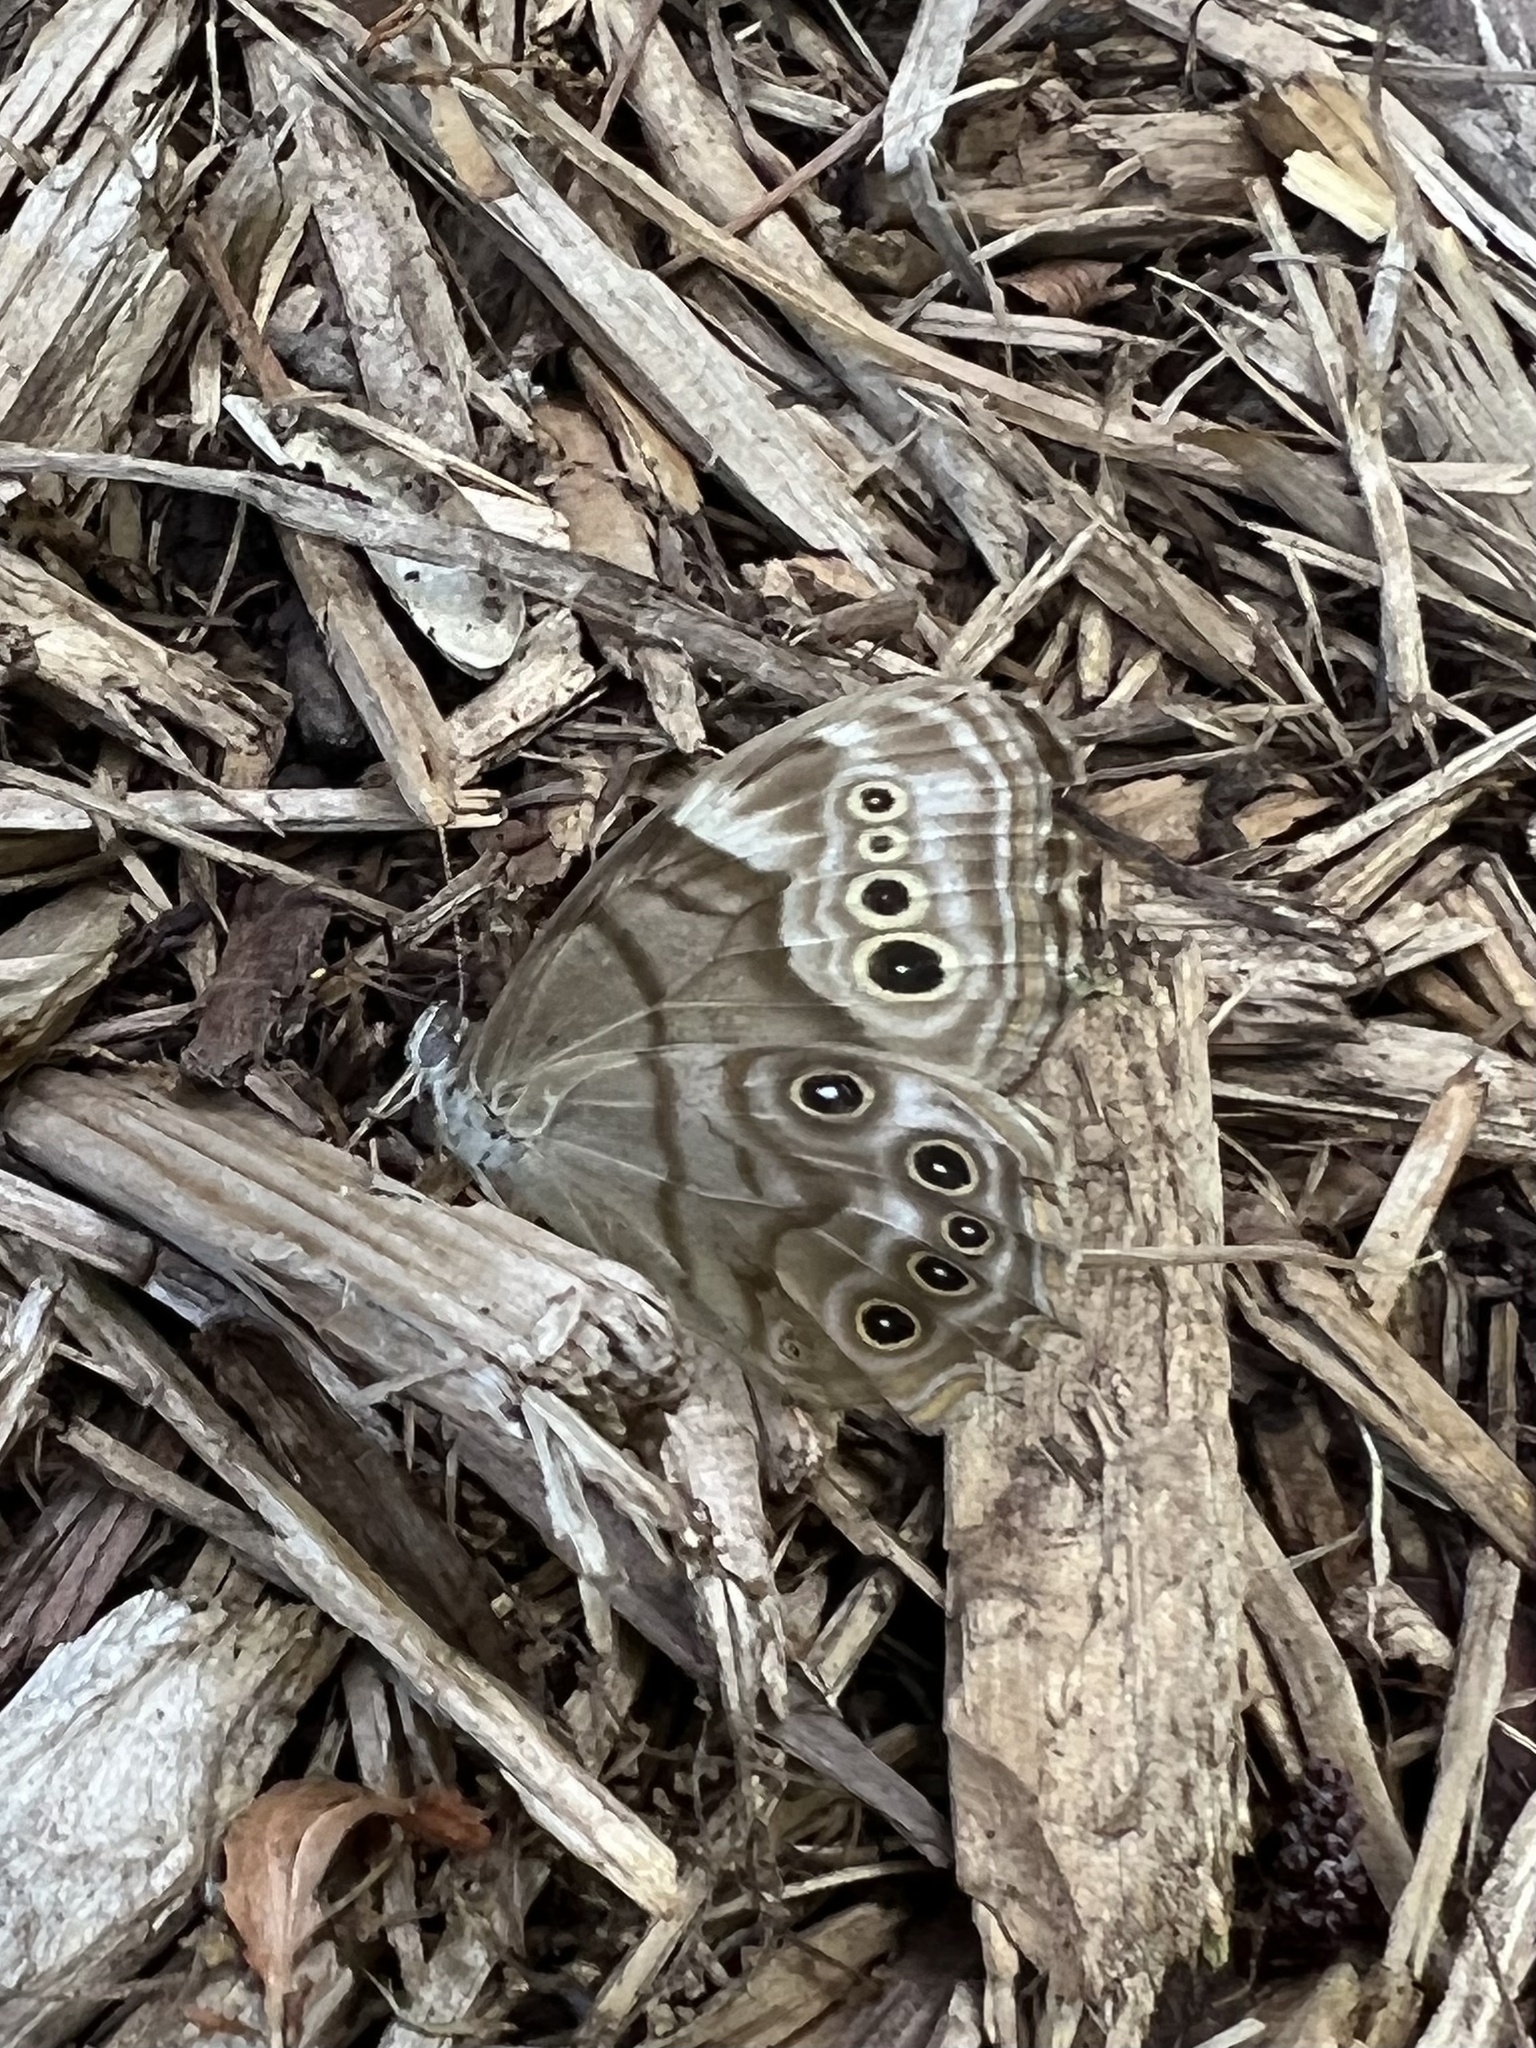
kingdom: Animalia
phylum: Arthropoda
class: Insecta
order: Lepidoptera
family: Nymphalidae
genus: Lethe
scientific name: Lethe anthedon
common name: Northern pearly-eye
